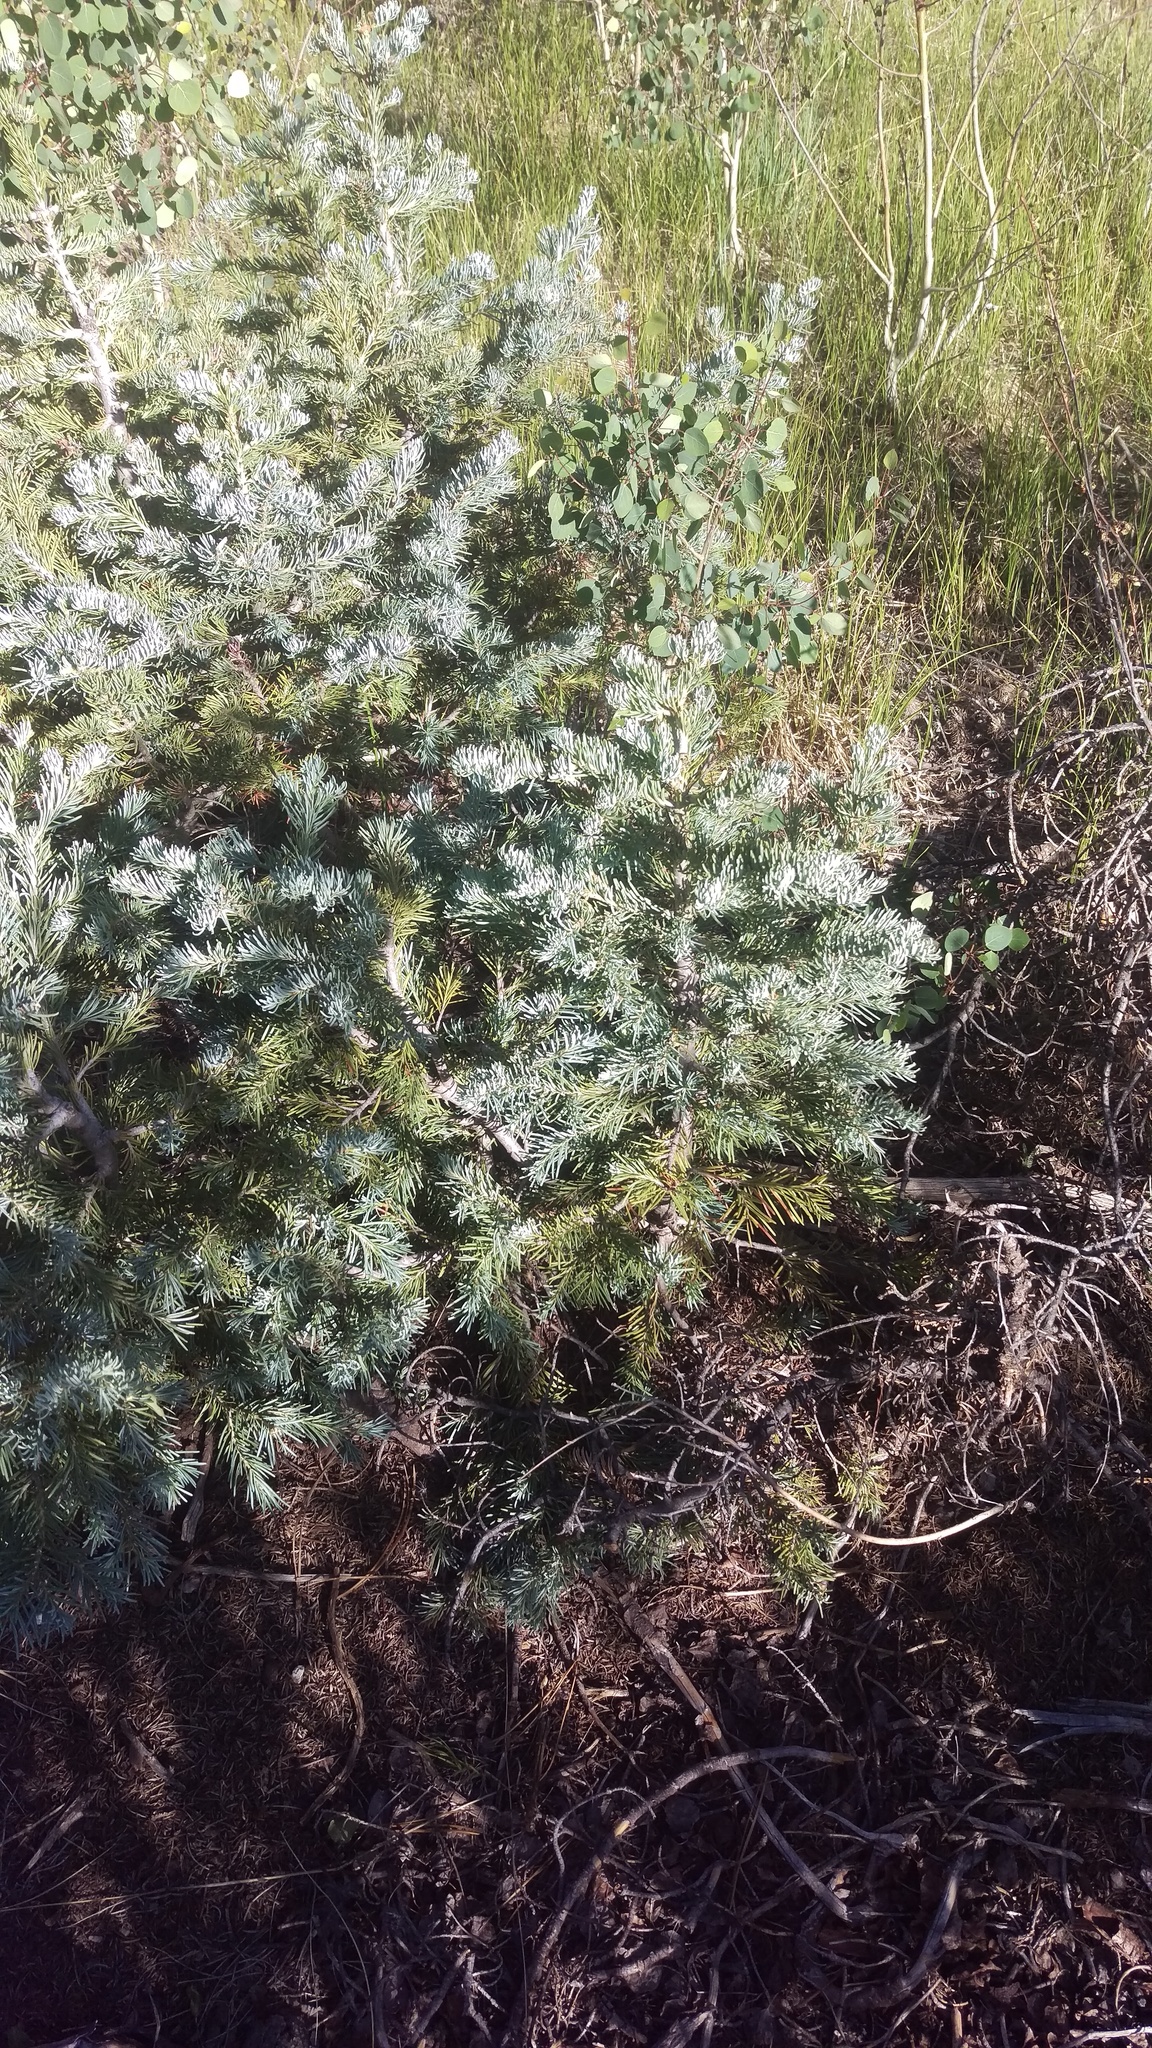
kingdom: Plantae
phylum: Tracheophyta
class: Pinopsida
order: Pinales
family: Pinaceae
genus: Picea
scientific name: Picea pungens
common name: Colorado spruce
